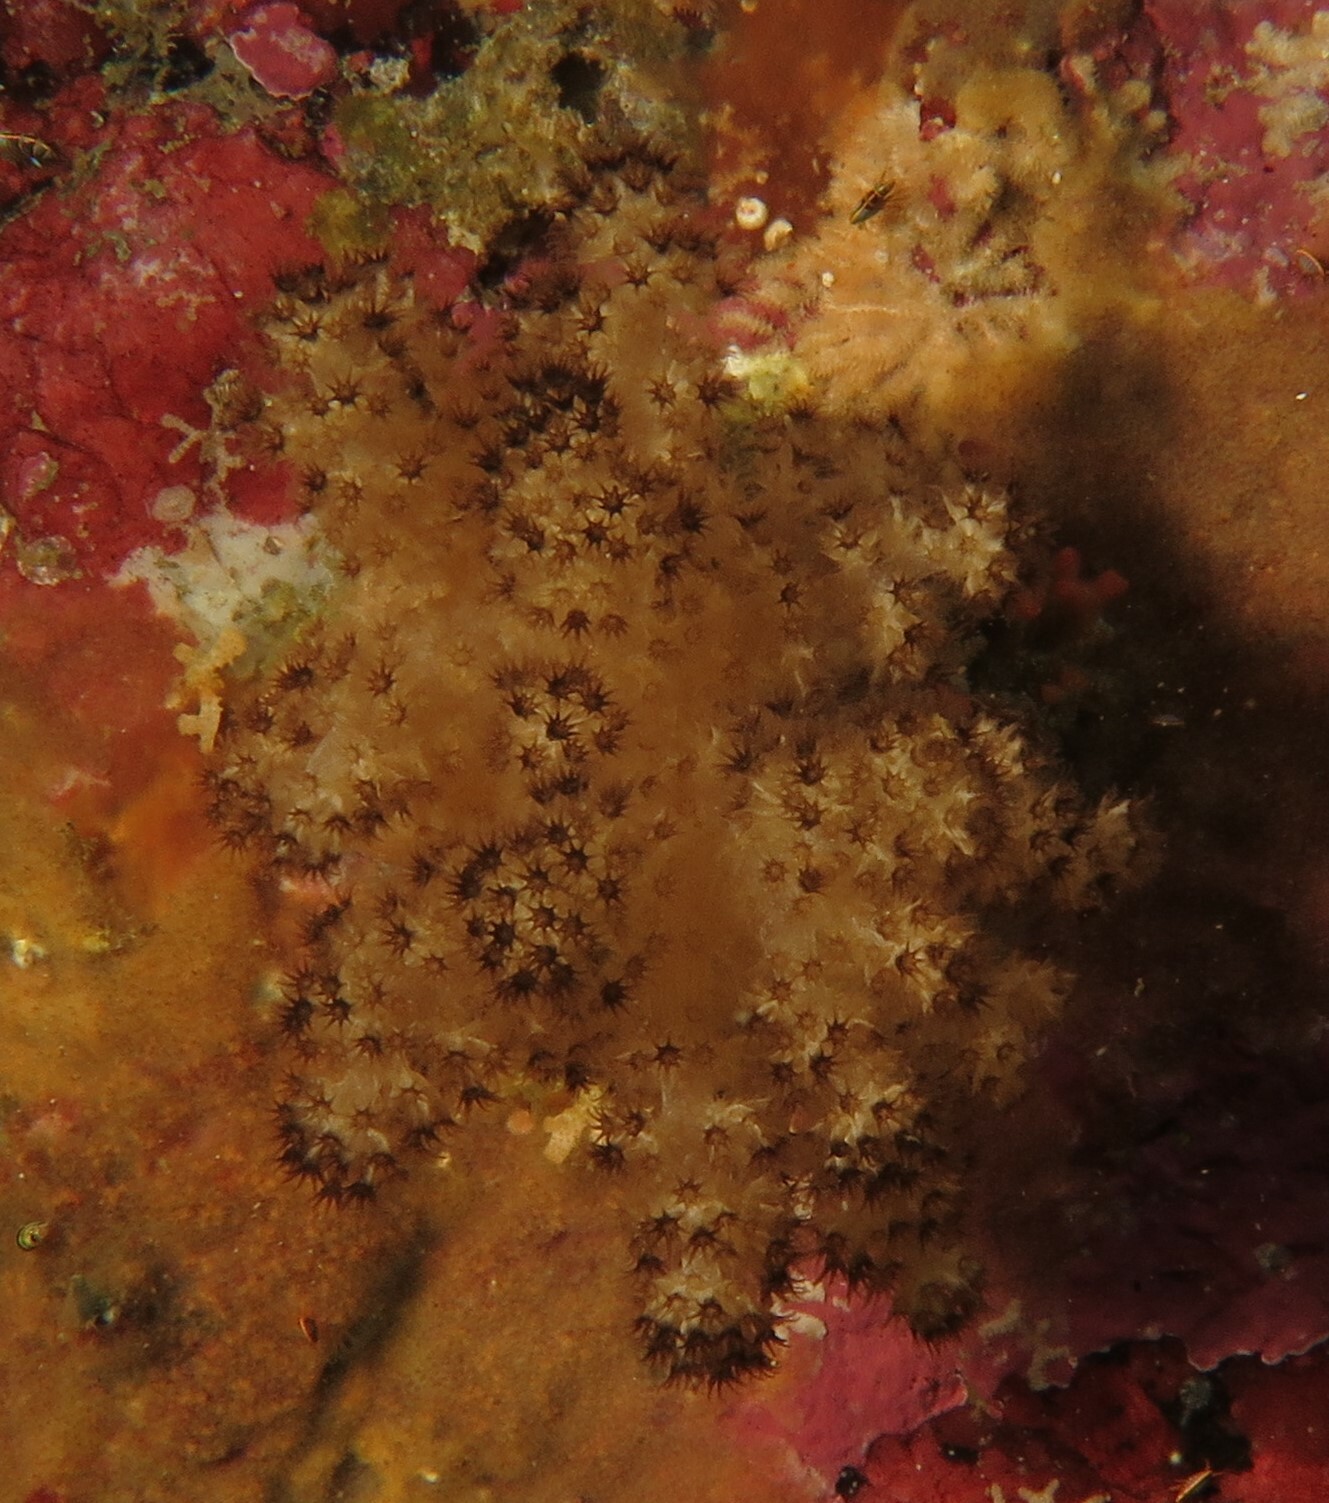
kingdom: Animalia
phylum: Cnidaria
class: Anthozoa
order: Malacalcyonacea
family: Capnellidae
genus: Eunephthya
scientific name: Eunephthya thyrsoidea
